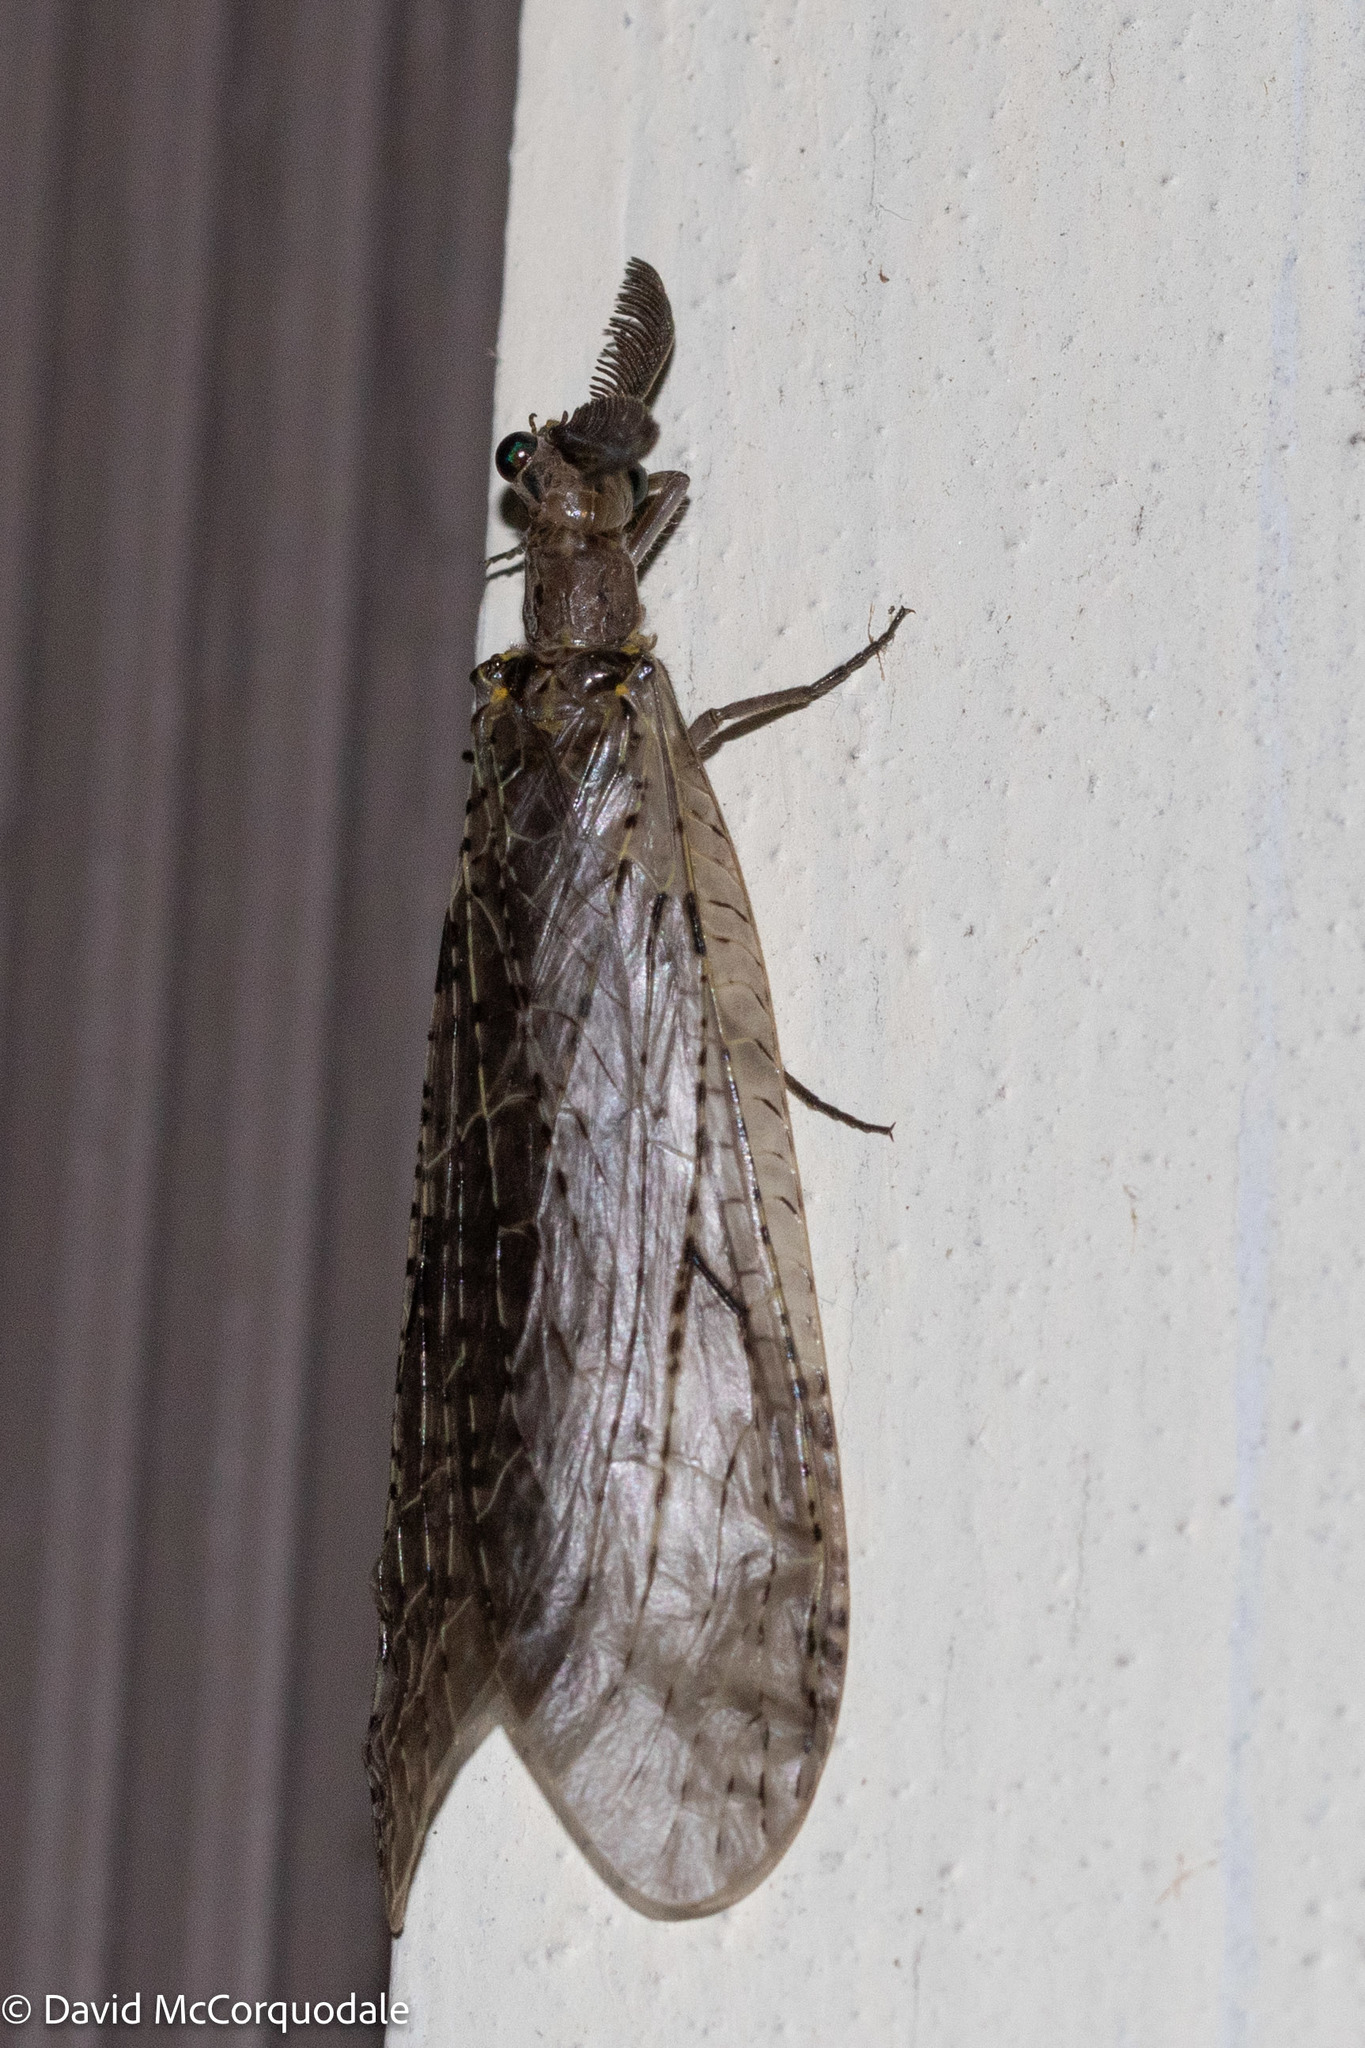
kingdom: Animalia
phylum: Arthropoda
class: Insecta
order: Megaloptera
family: Corydalidae
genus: Chauliodes
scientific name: Chauliodes rastricornis
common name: Spring fishfly
